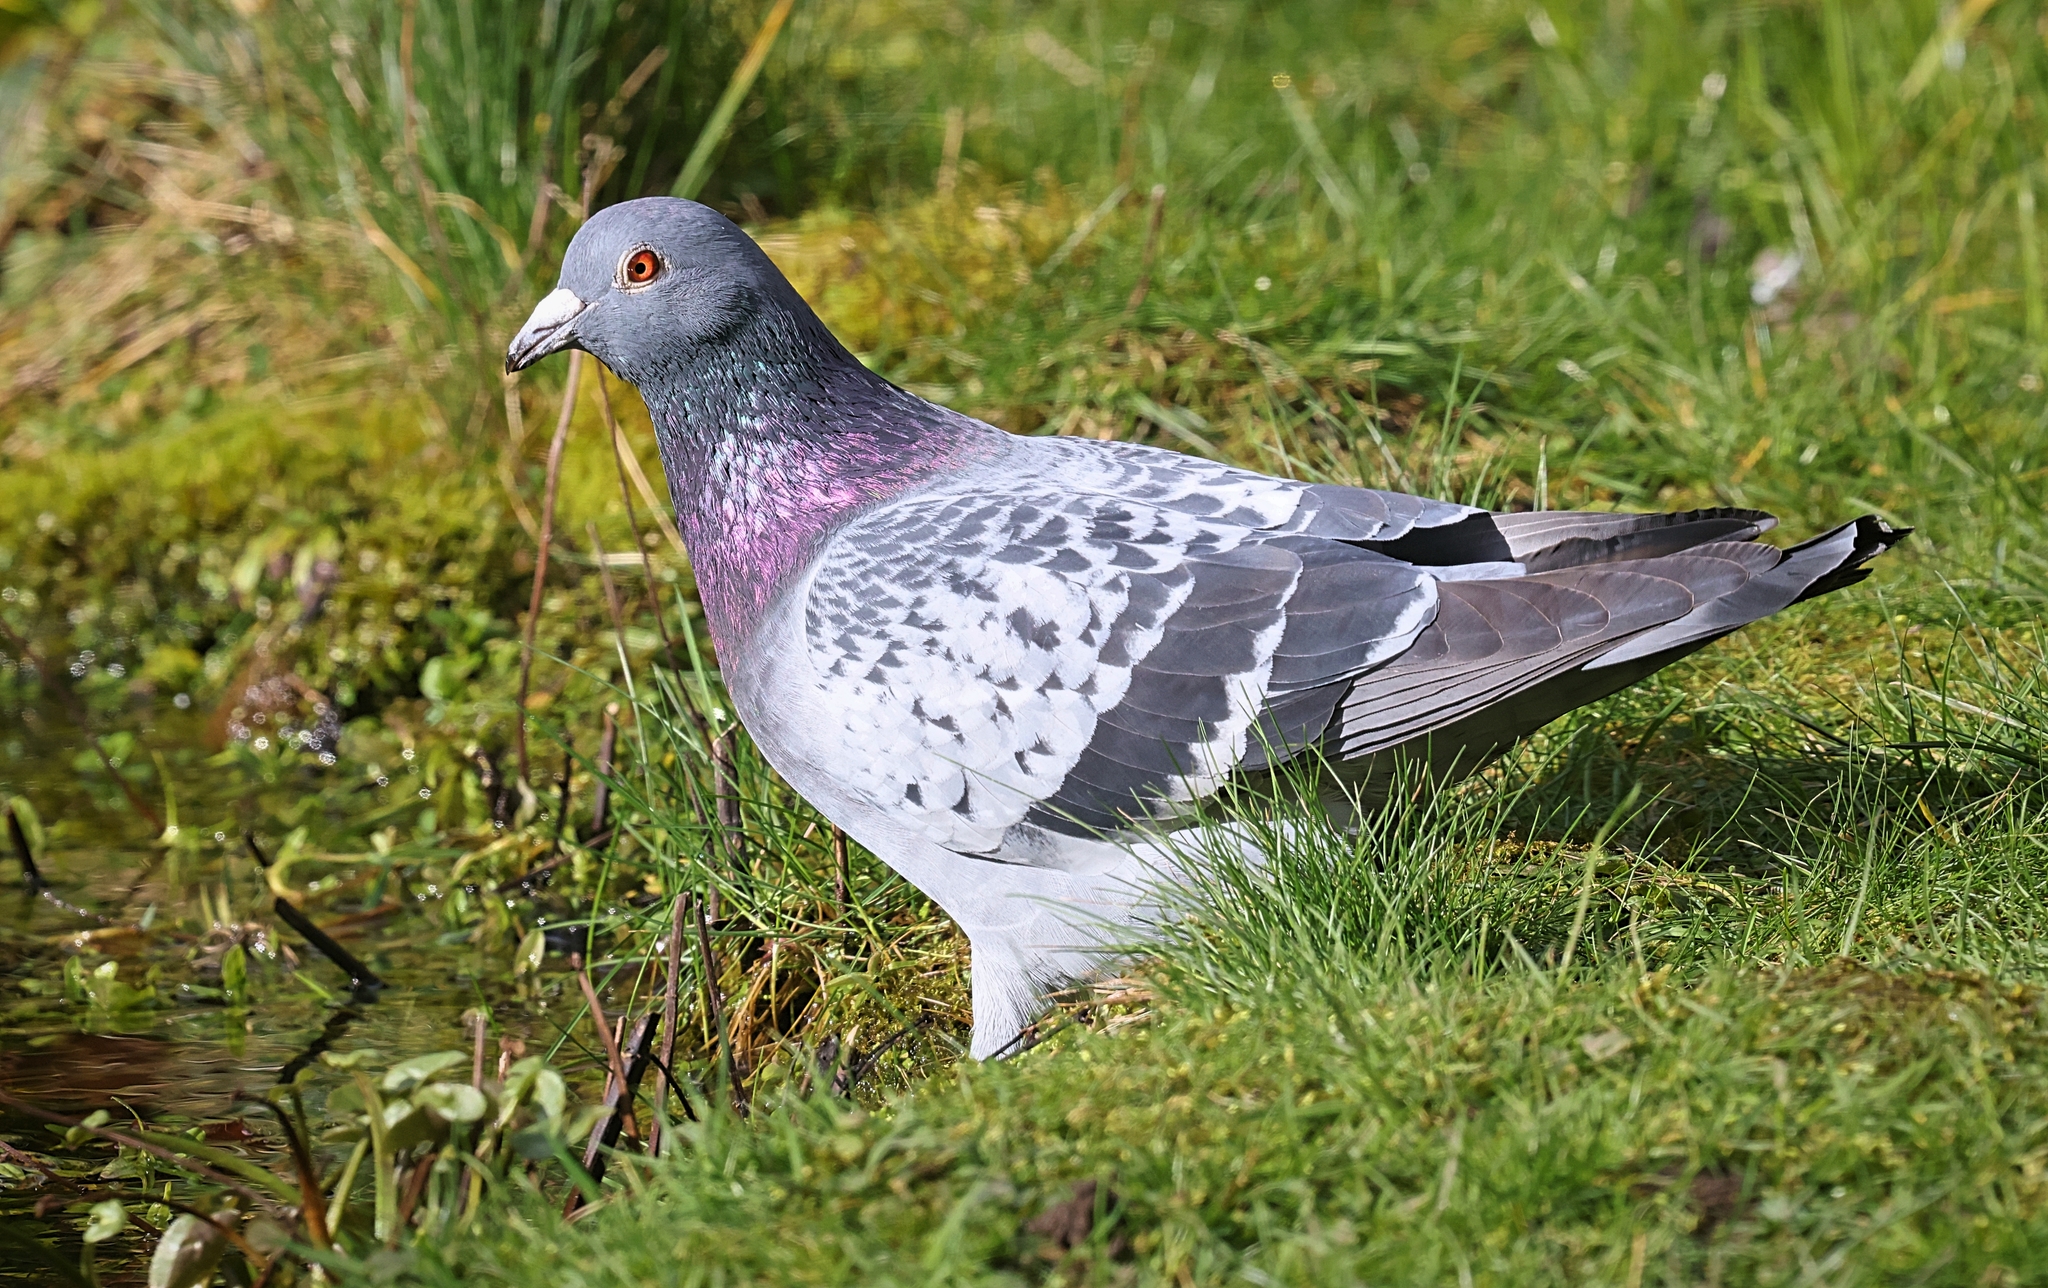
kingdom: Animalia
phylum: Chordata
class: Aves
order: Columbiformes
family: Columbidae
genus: Columba
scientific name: Columba livia
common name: Rock pigeon
